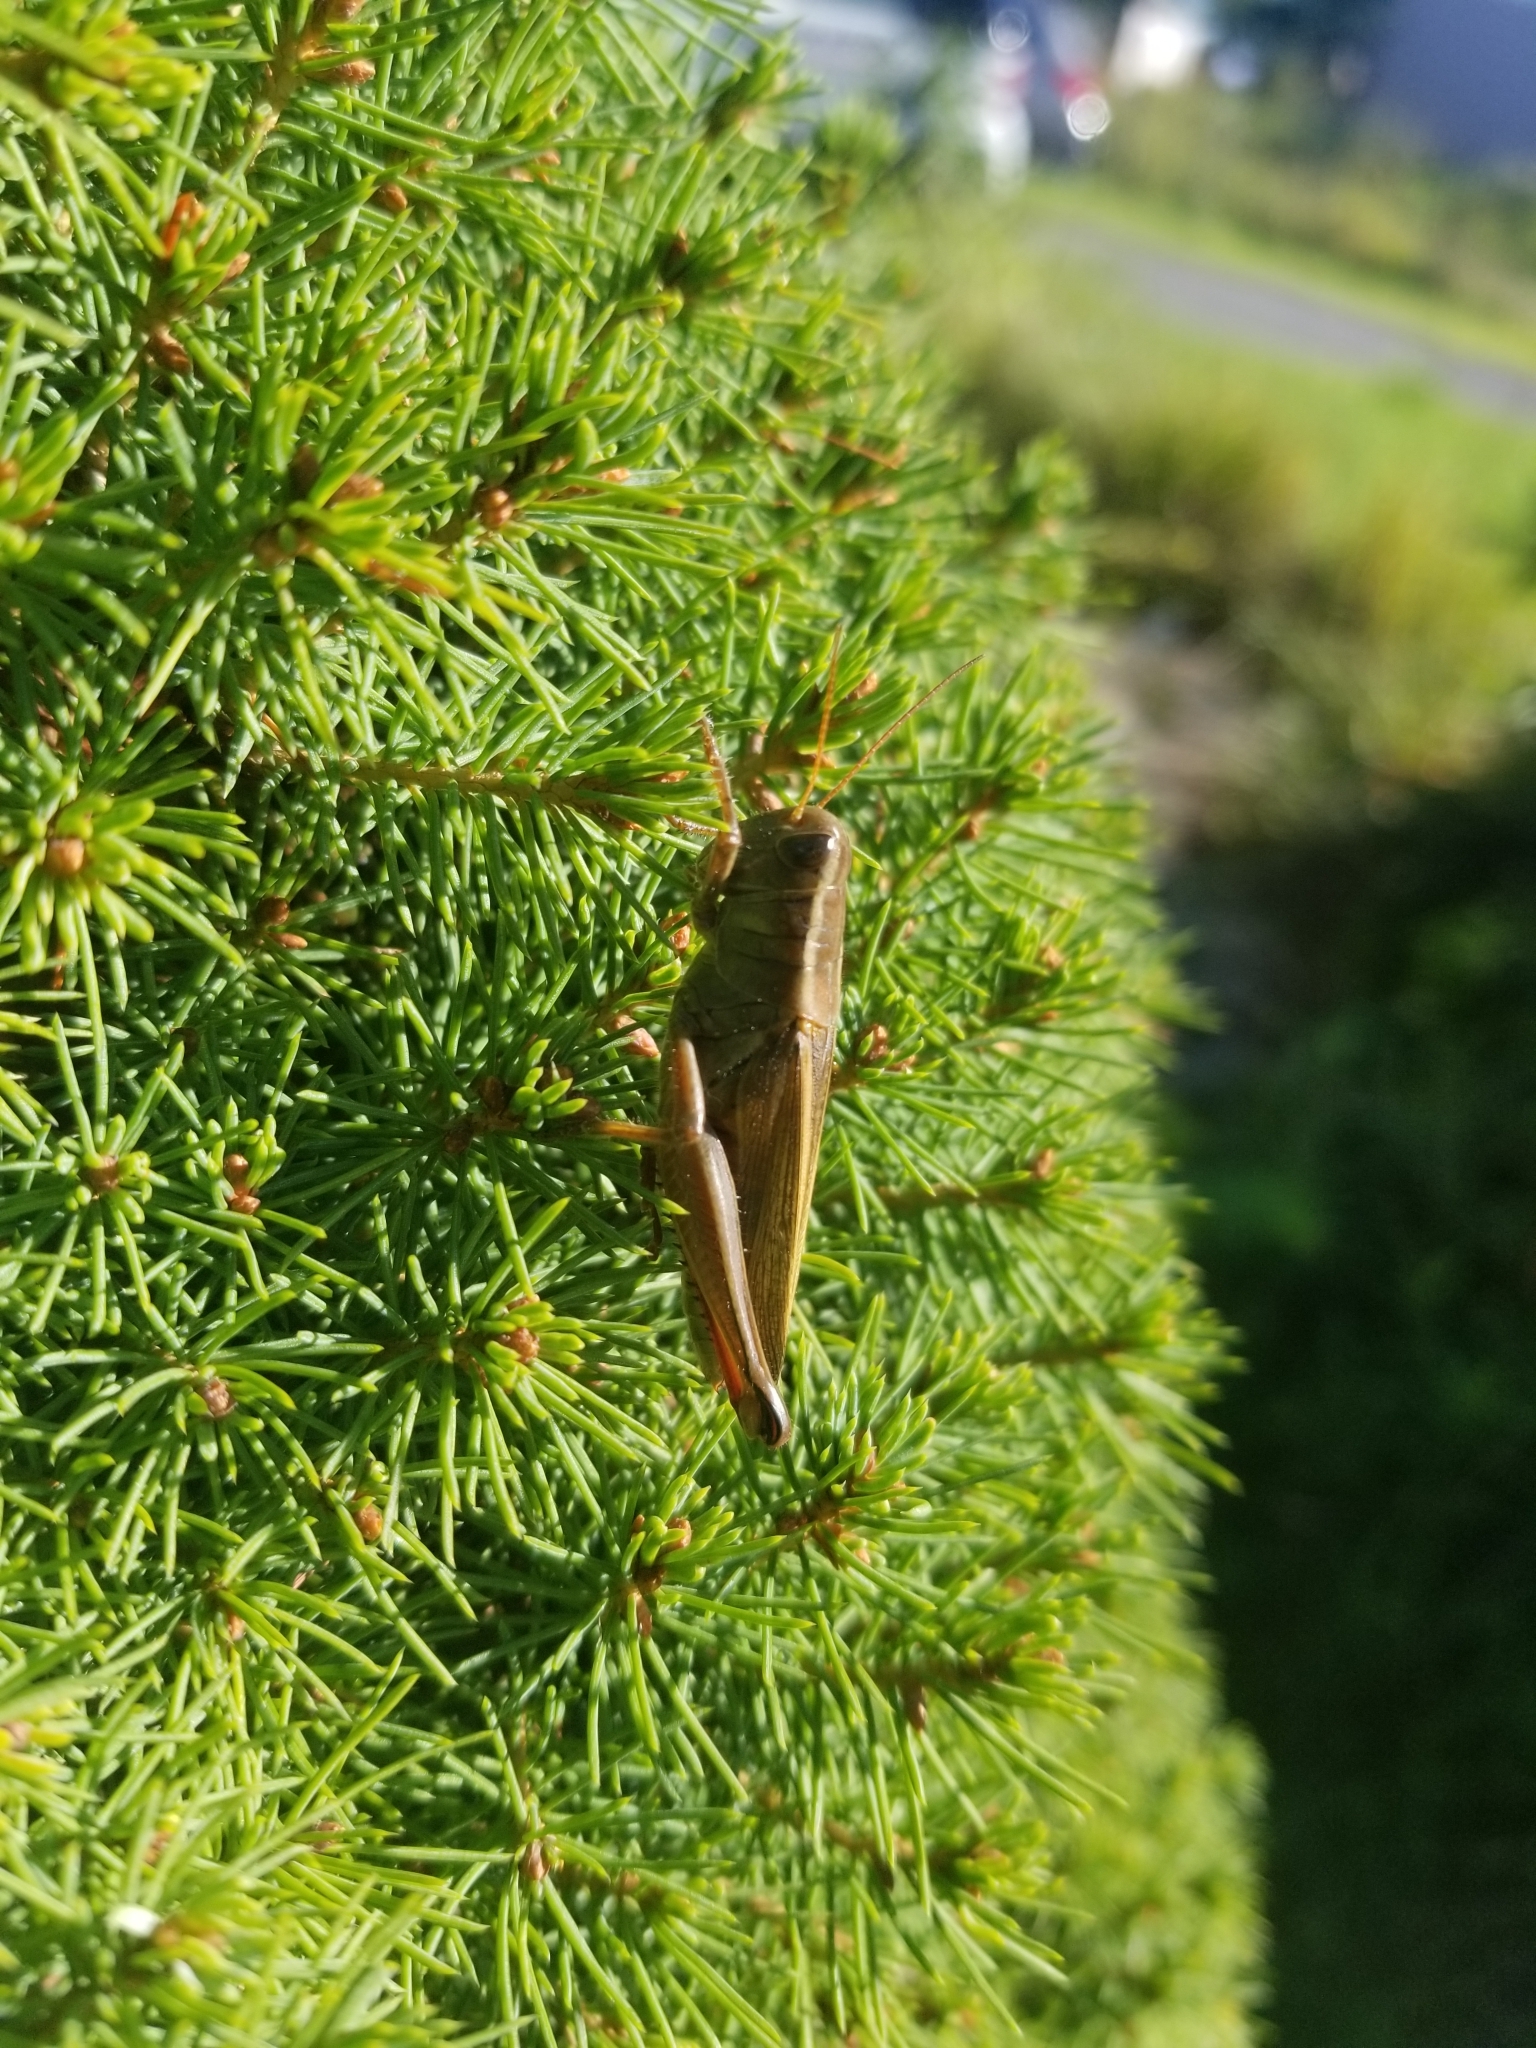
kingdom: Animalia
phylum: Arthropoda
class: Insecta
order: Orthoptera
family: Acrididae
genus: Melanoplus
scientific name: Melanoplus bivittatus
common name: Two-striped grasshopper
